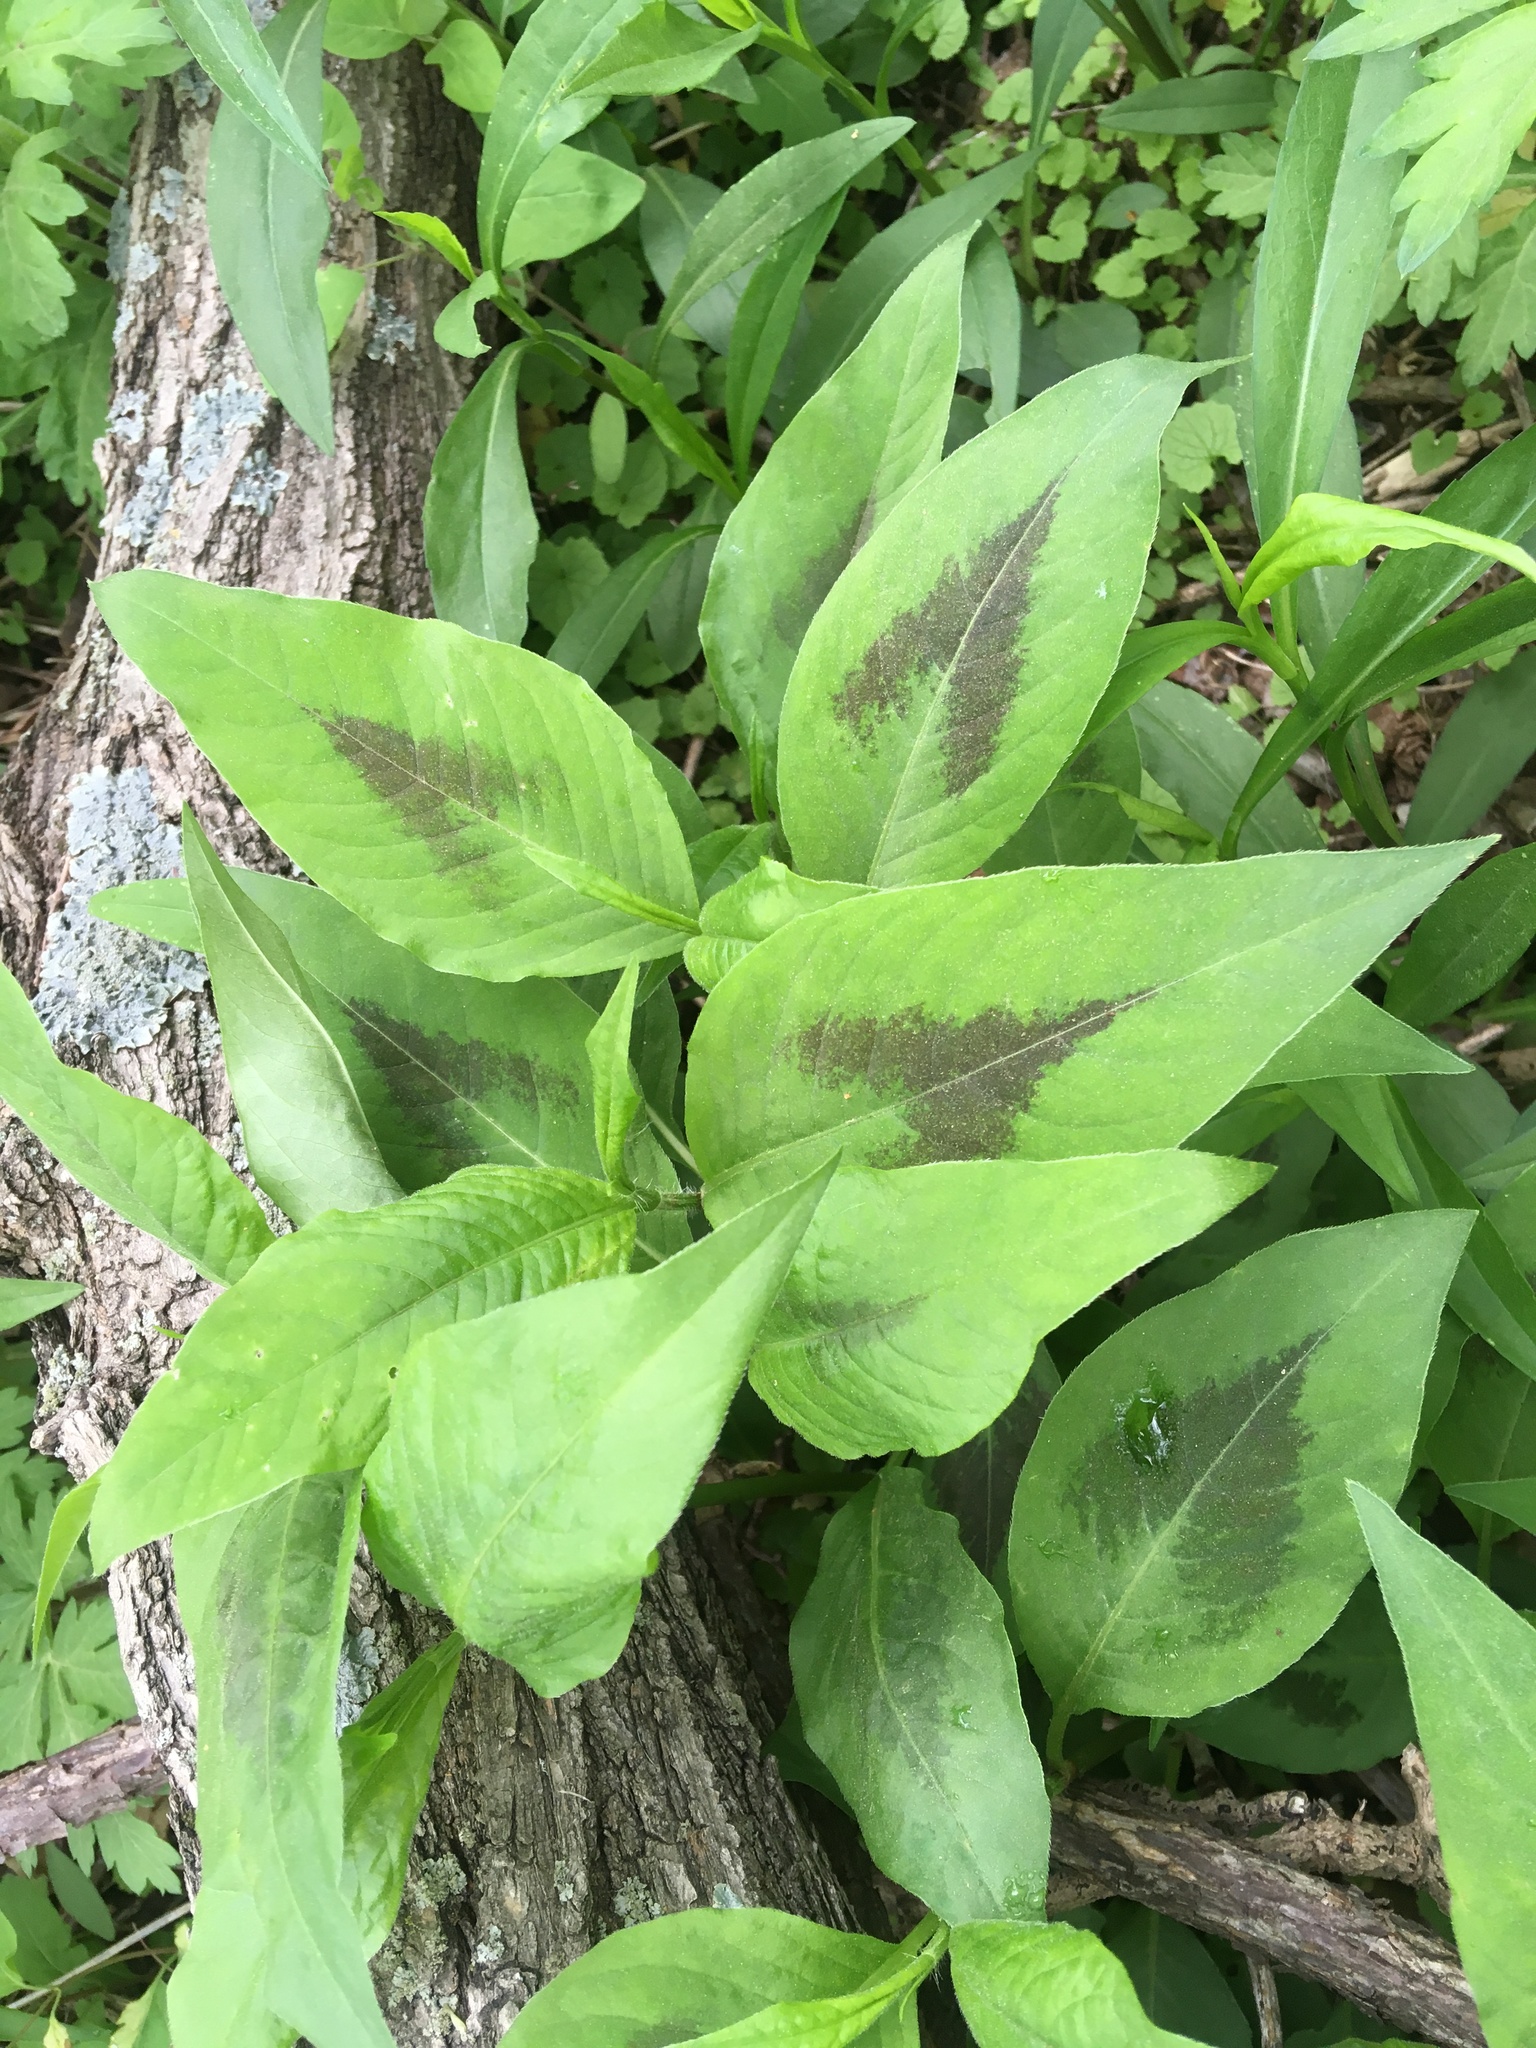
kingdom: Plantae
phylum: Tracheophyta
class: Magnoliopsida
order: Caryophyllales
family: Polygonaceae
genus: Persicaria
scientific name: Persicaria virginiana
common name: Jumpseed
